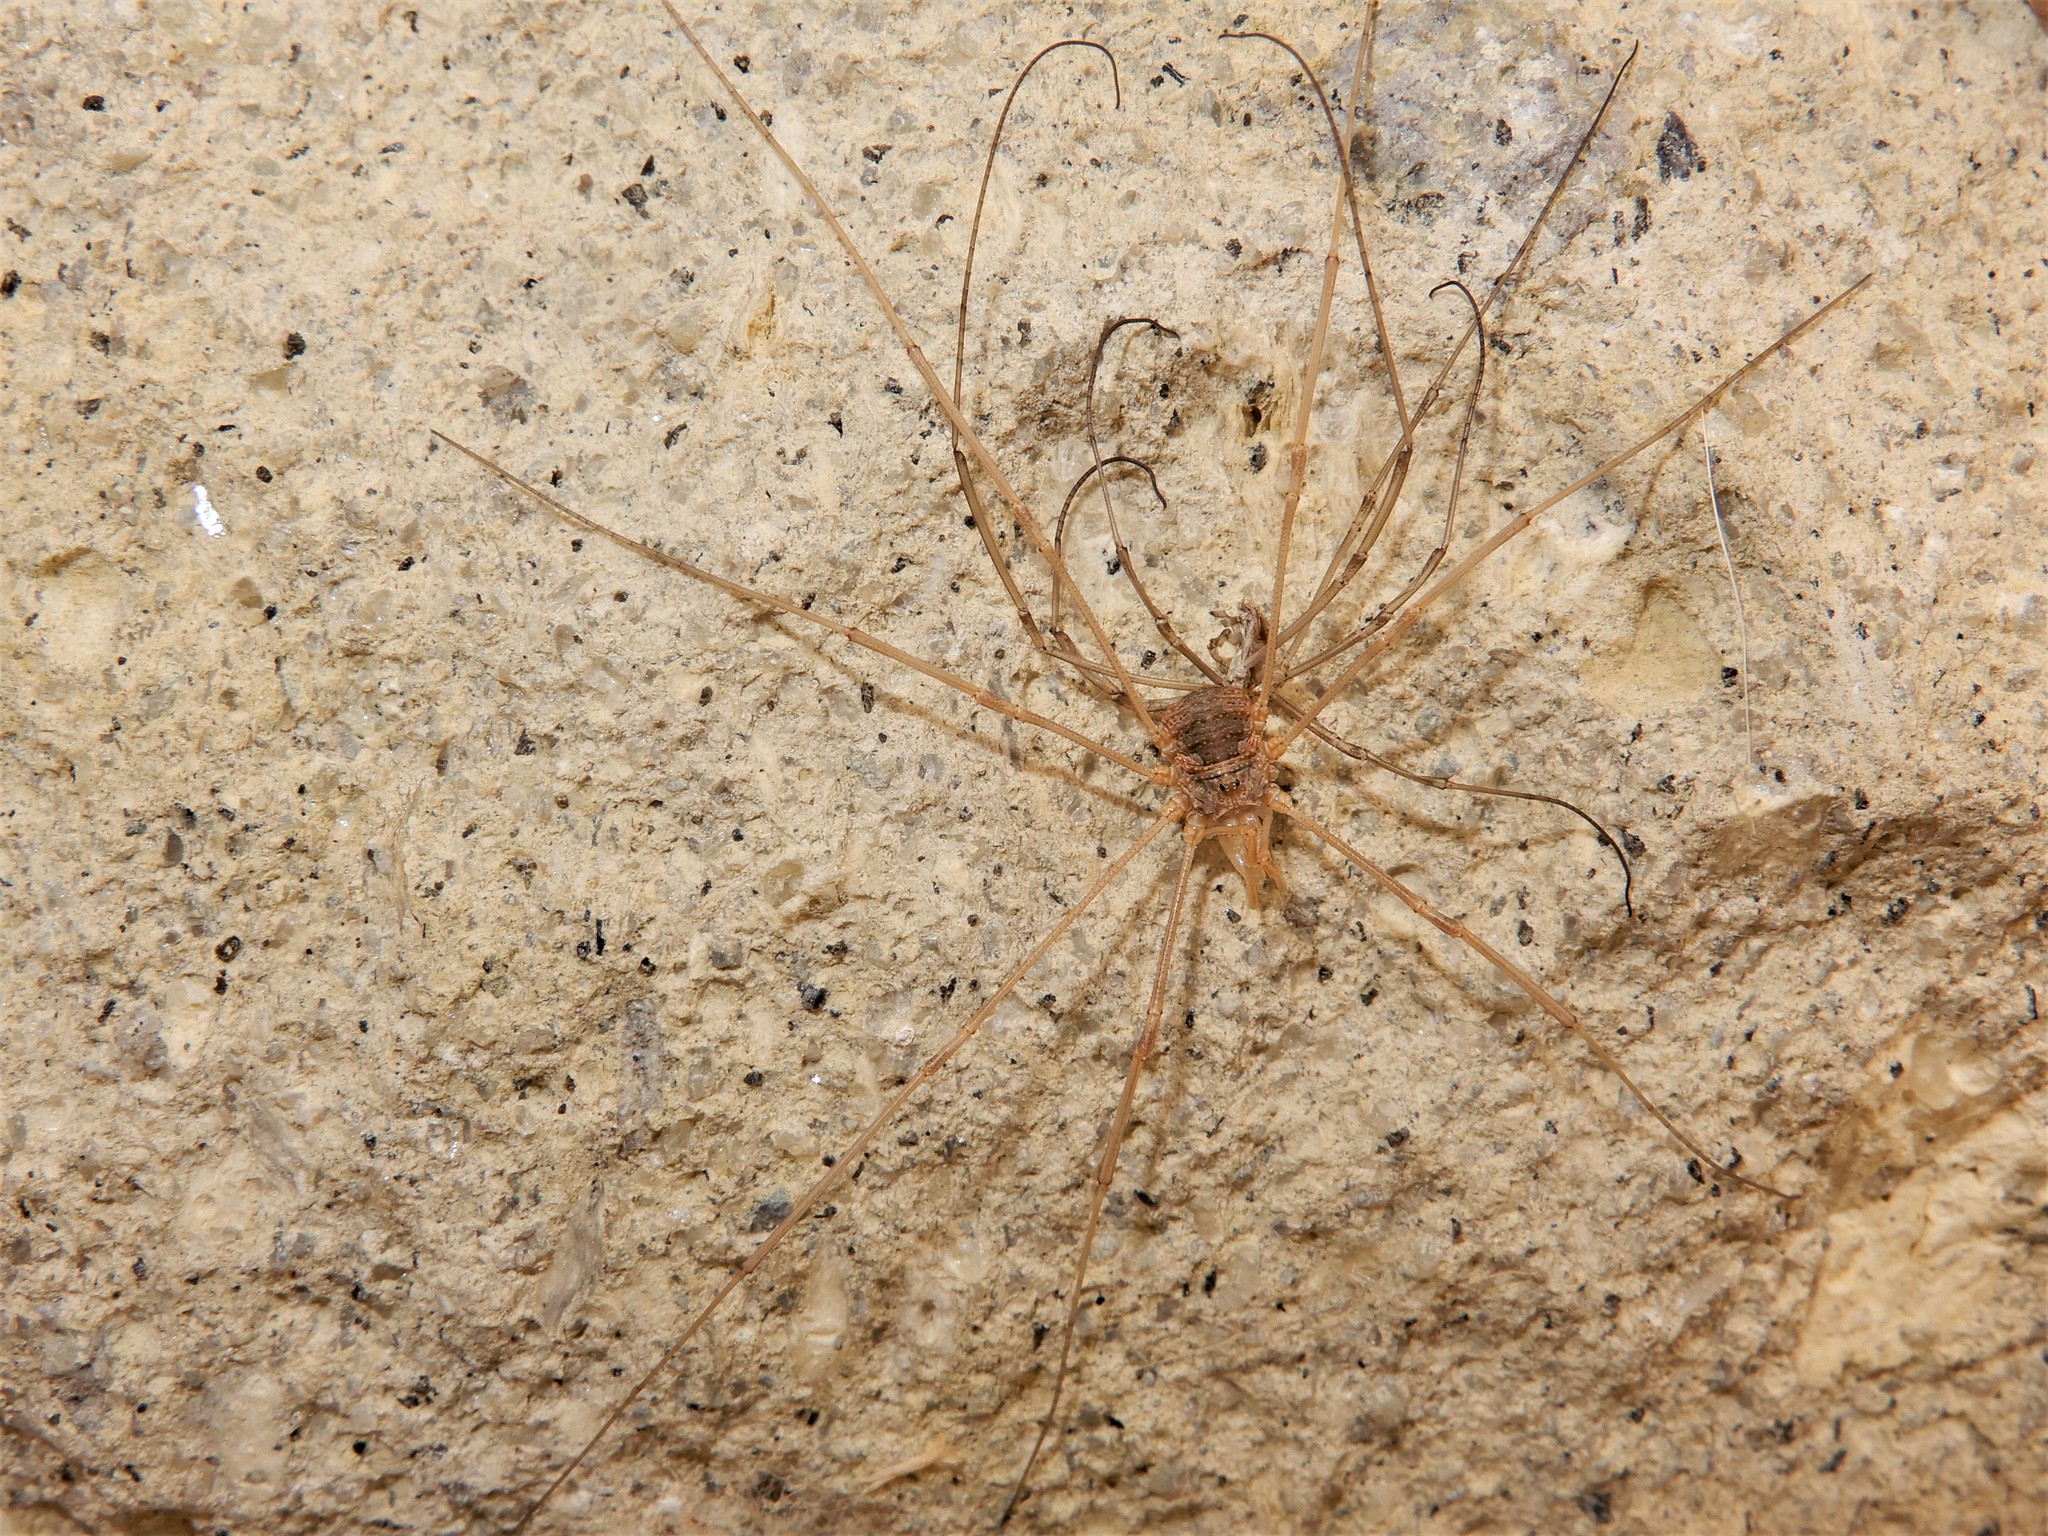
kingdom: Animalia
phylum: Arthropoda
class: Arachnida
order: Opiliones
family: Phalangiidae
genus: Phalangium
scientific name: Phalangium opilio
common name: Daddy longleg
